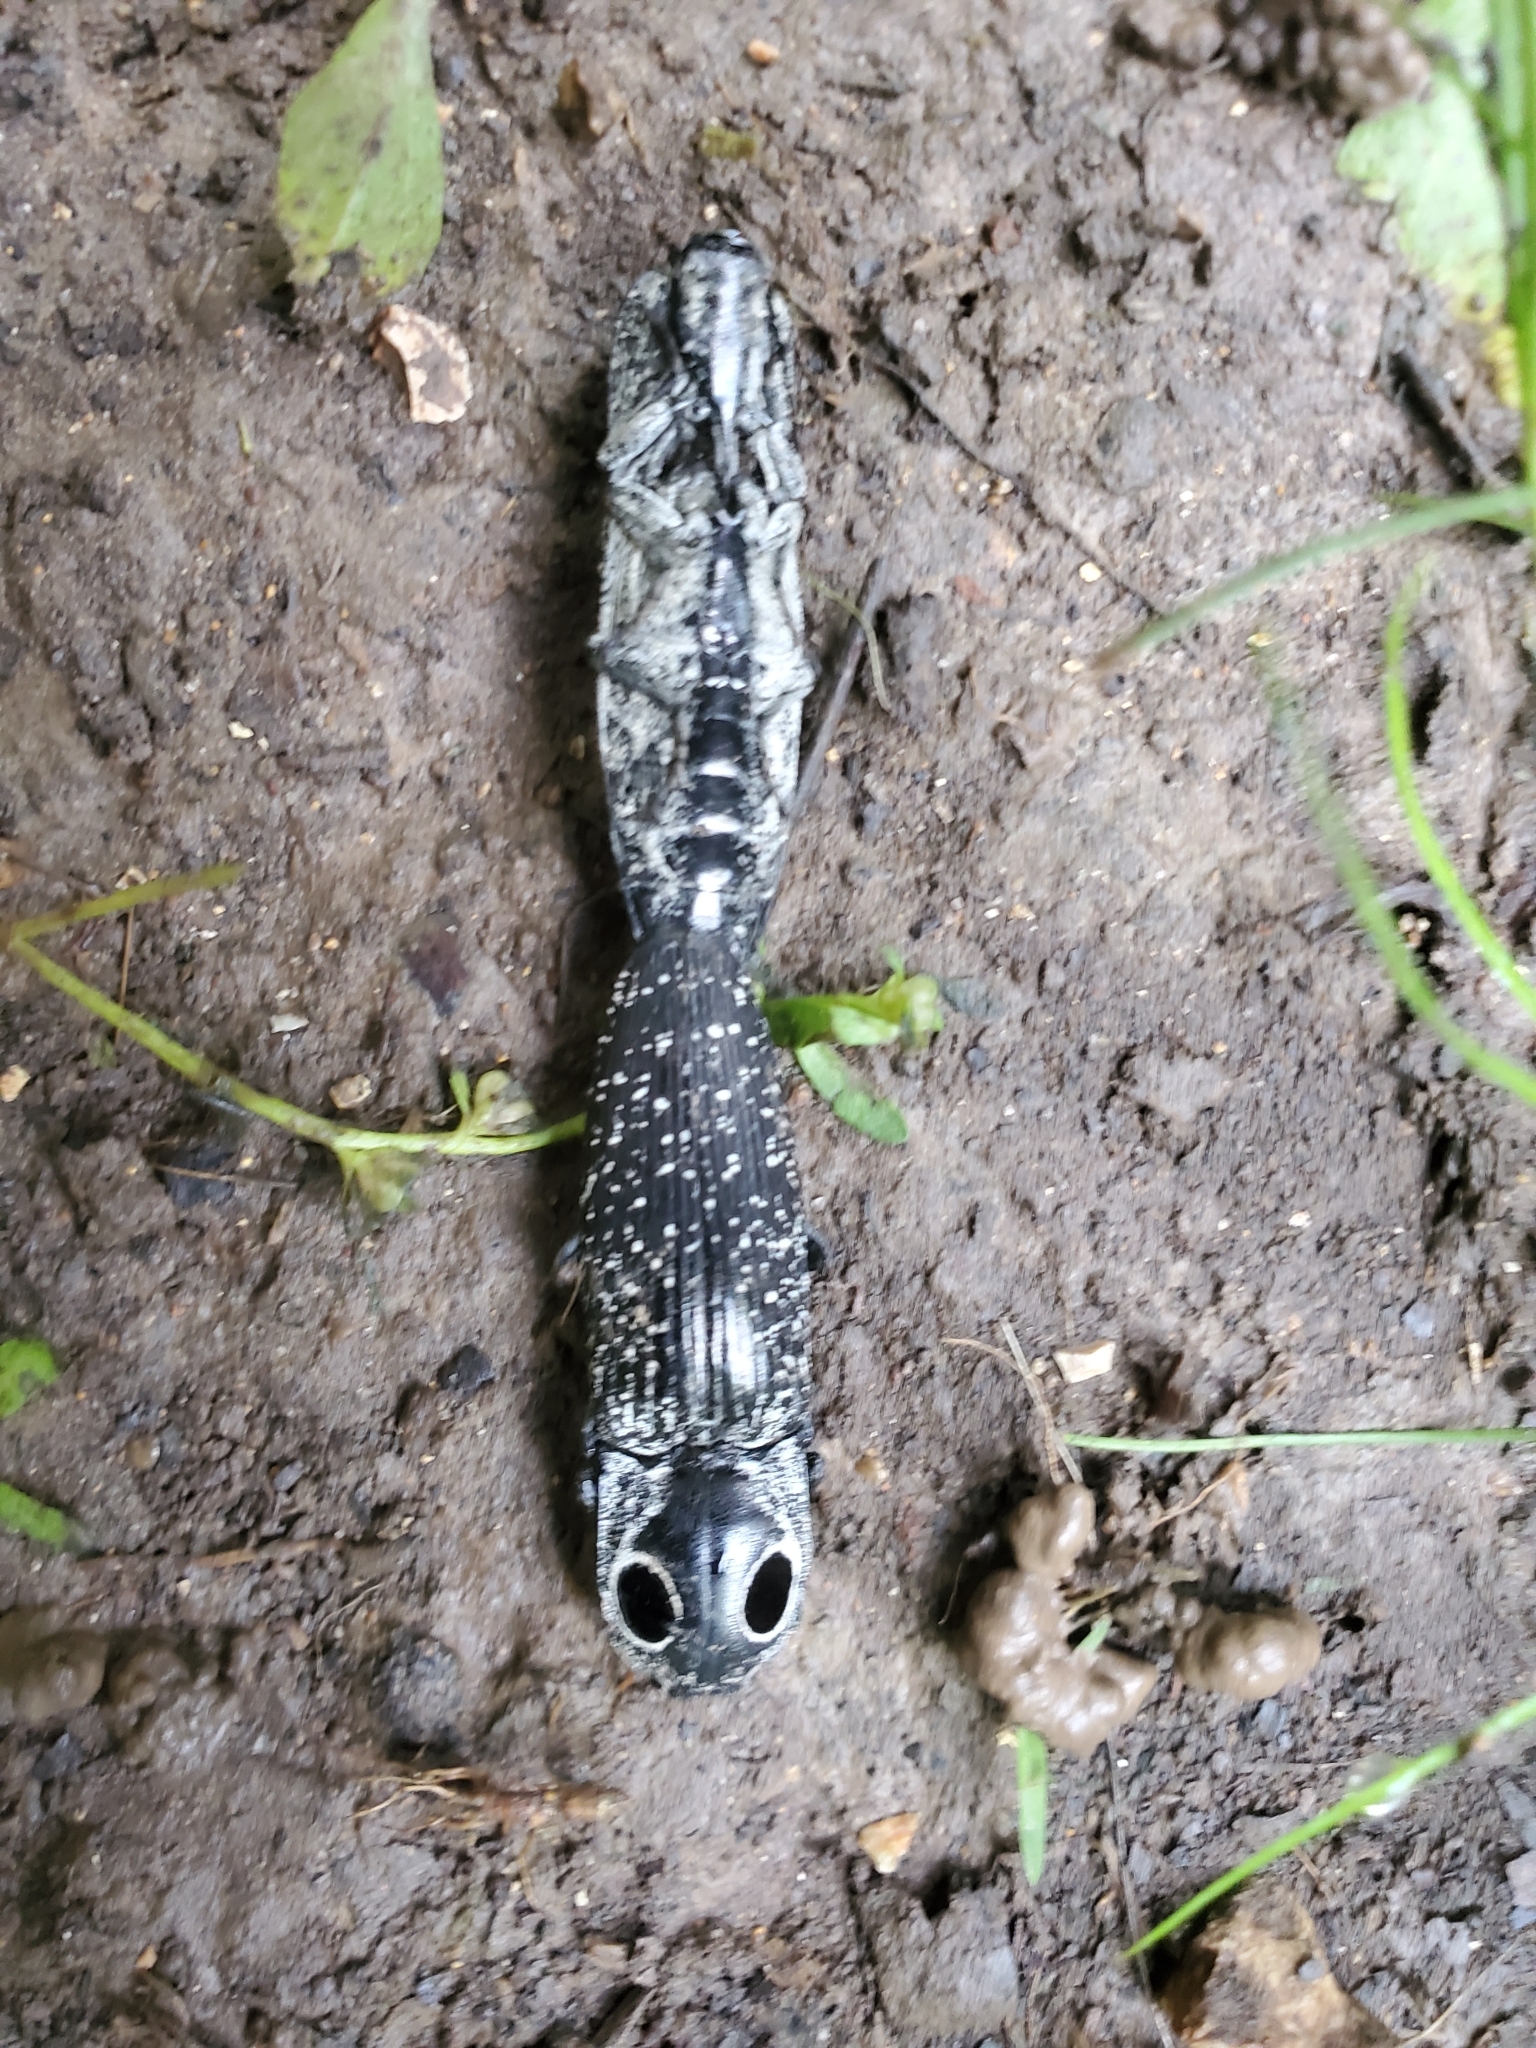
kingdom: Animalia
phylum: Arthropoda
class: Insecta
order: Coleoptera
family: Elateridae
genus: Alaus
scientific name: Alaus oculatus
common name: Eastern eyed click beetle
